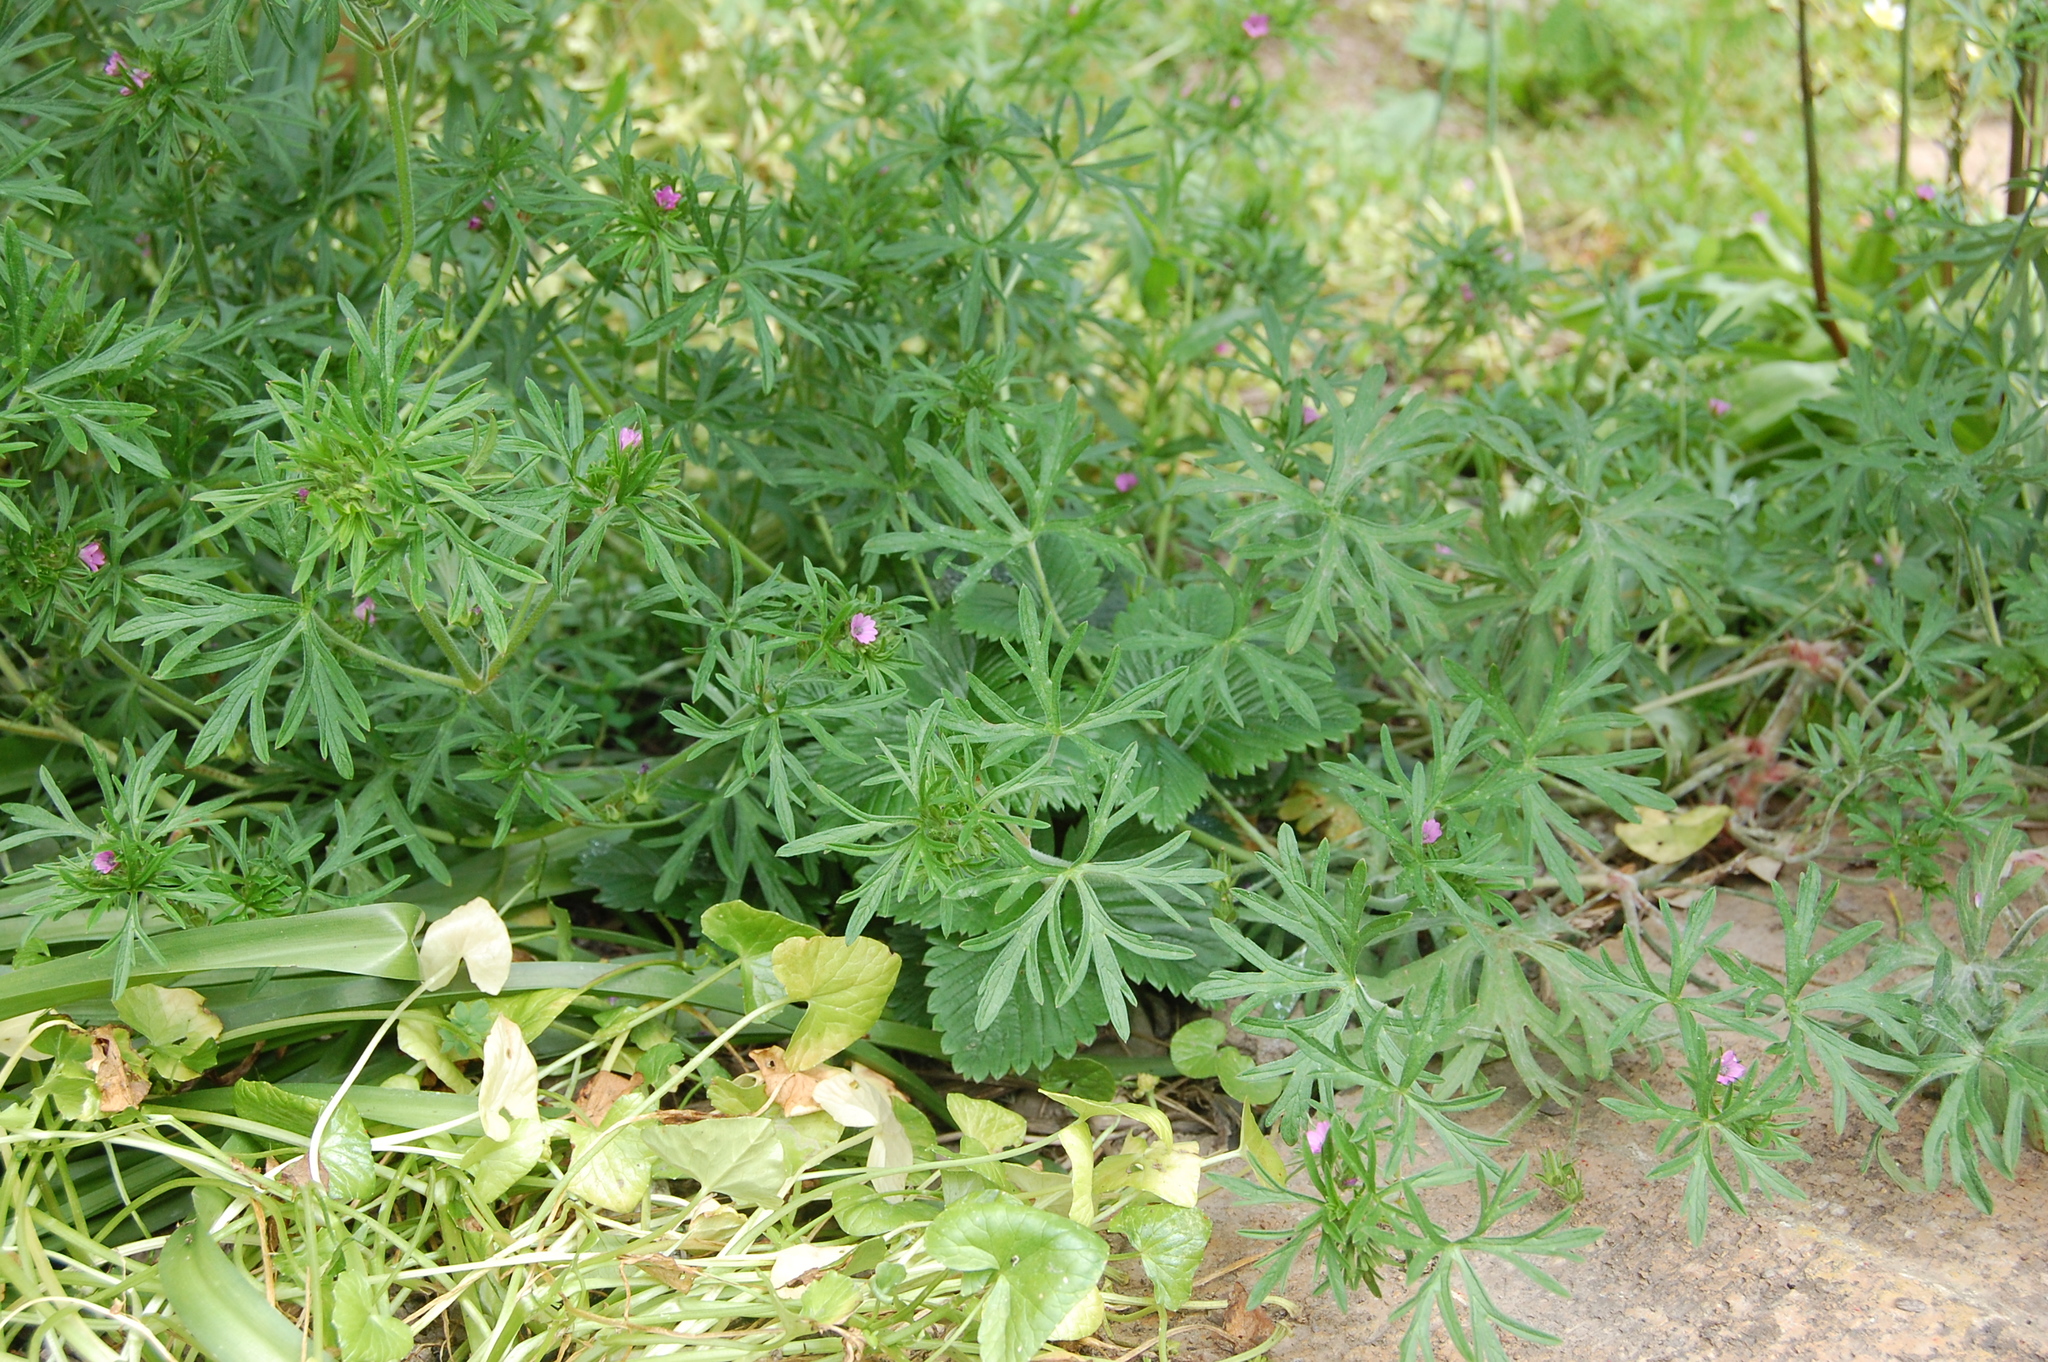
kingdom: Plantae
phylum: Tracheophyta
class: Magnoliopsida
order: Geraniales
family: Geraniaceae
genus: Geranium
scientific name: Geranium dissectum
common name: Cut-leaved crane's-bill
